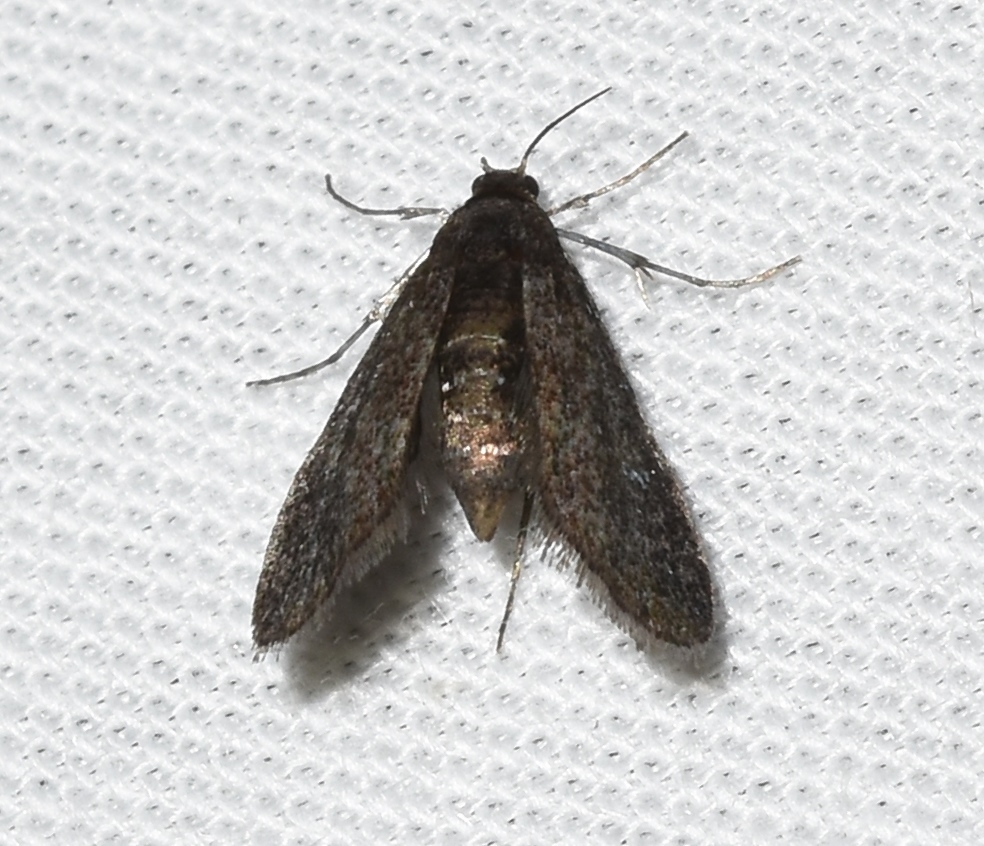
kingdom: Animalia
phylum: Arthropoda
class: Insecta
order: Lepidoptera
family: Crambidae
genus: Elophila
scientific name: Elophila tinealis
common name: Black duckweed moth
